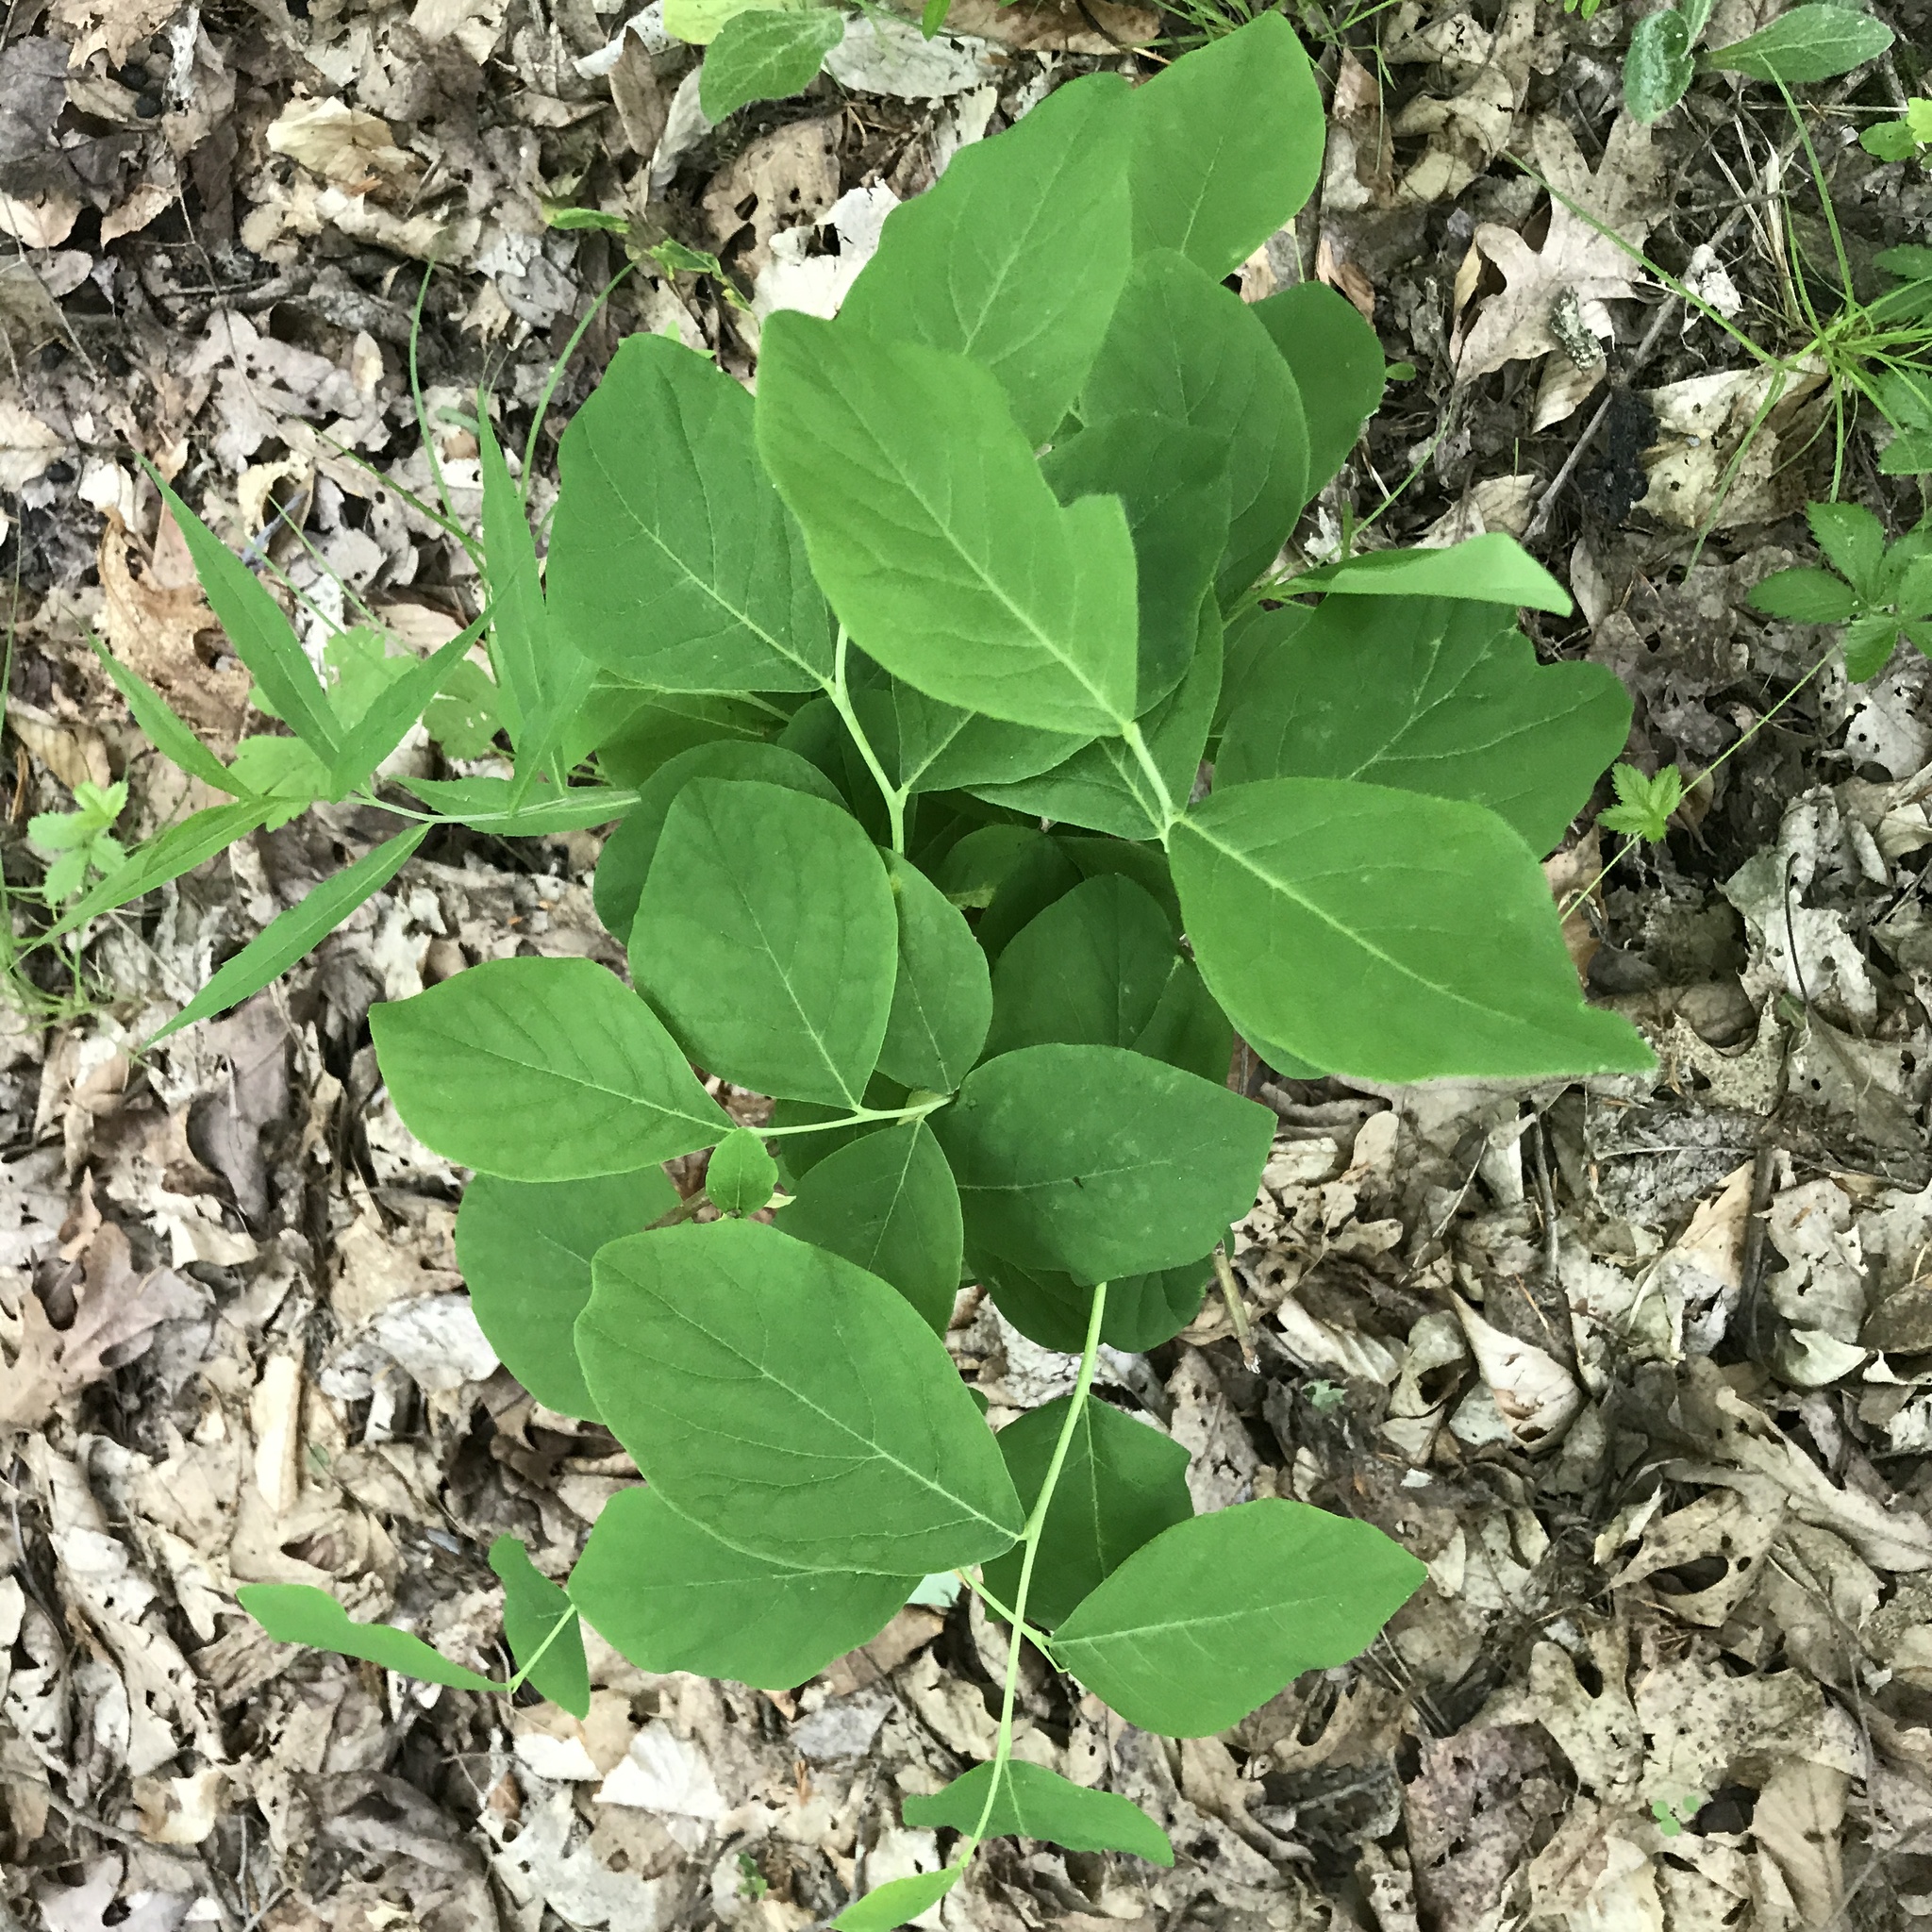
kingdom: Plantae
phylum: Tracheophyta
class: Magnoliopsida
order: Malvales
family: Thymelaeaceae
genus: Dirca
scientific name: Dirca palustris
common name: Leatherwood
